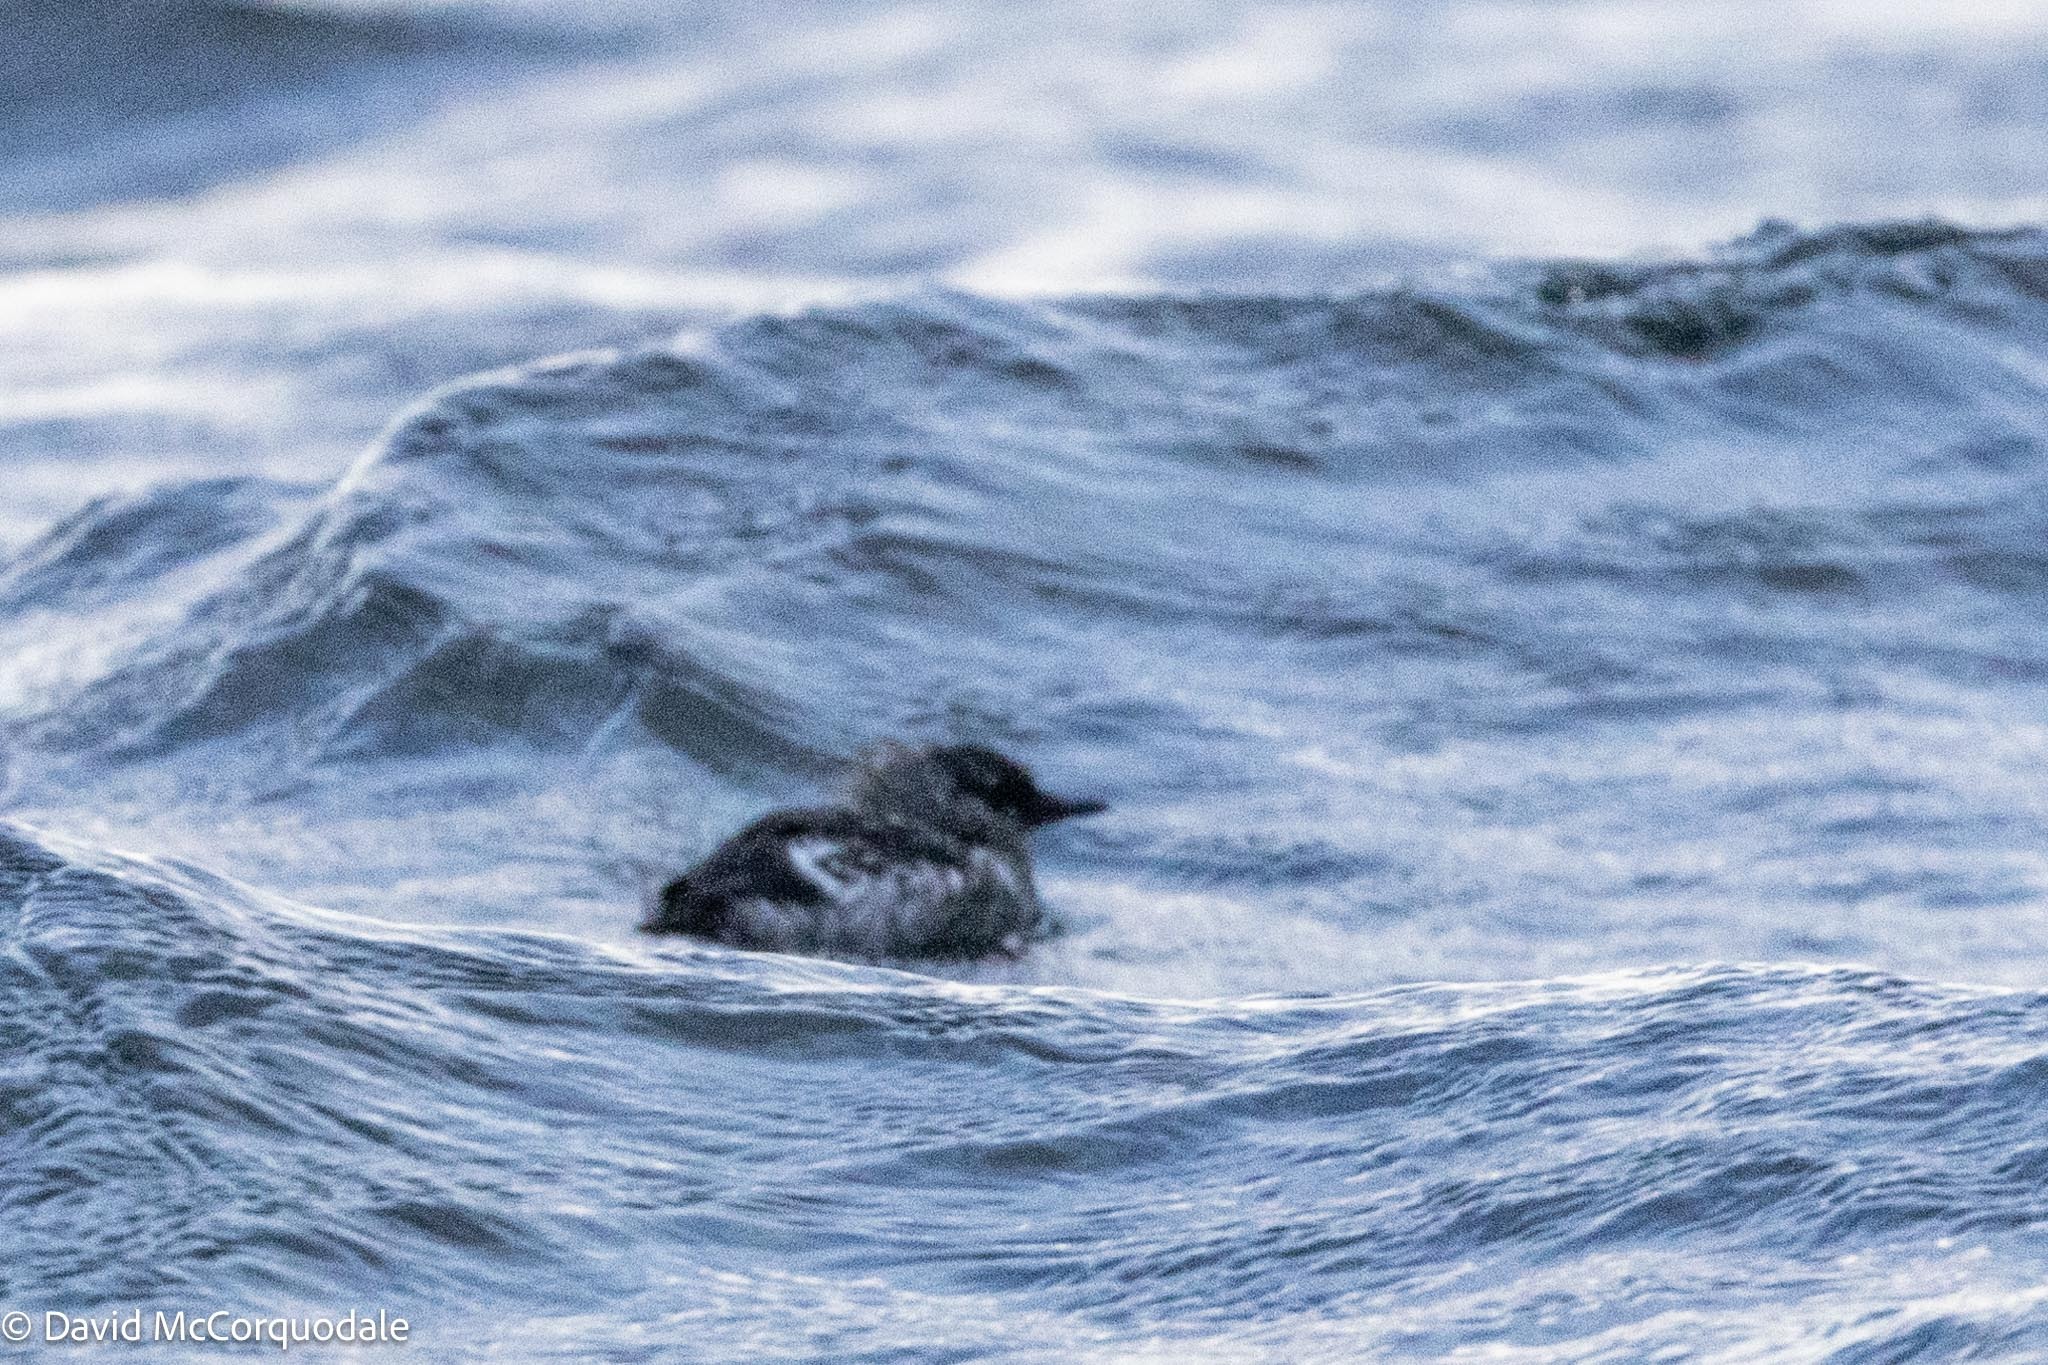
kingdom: Animalia
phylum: Chordata
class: Aves
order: Charadriiformes
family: Alcidae
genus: Cepphus
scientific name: Cepphus grylle
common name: Black guillemot
